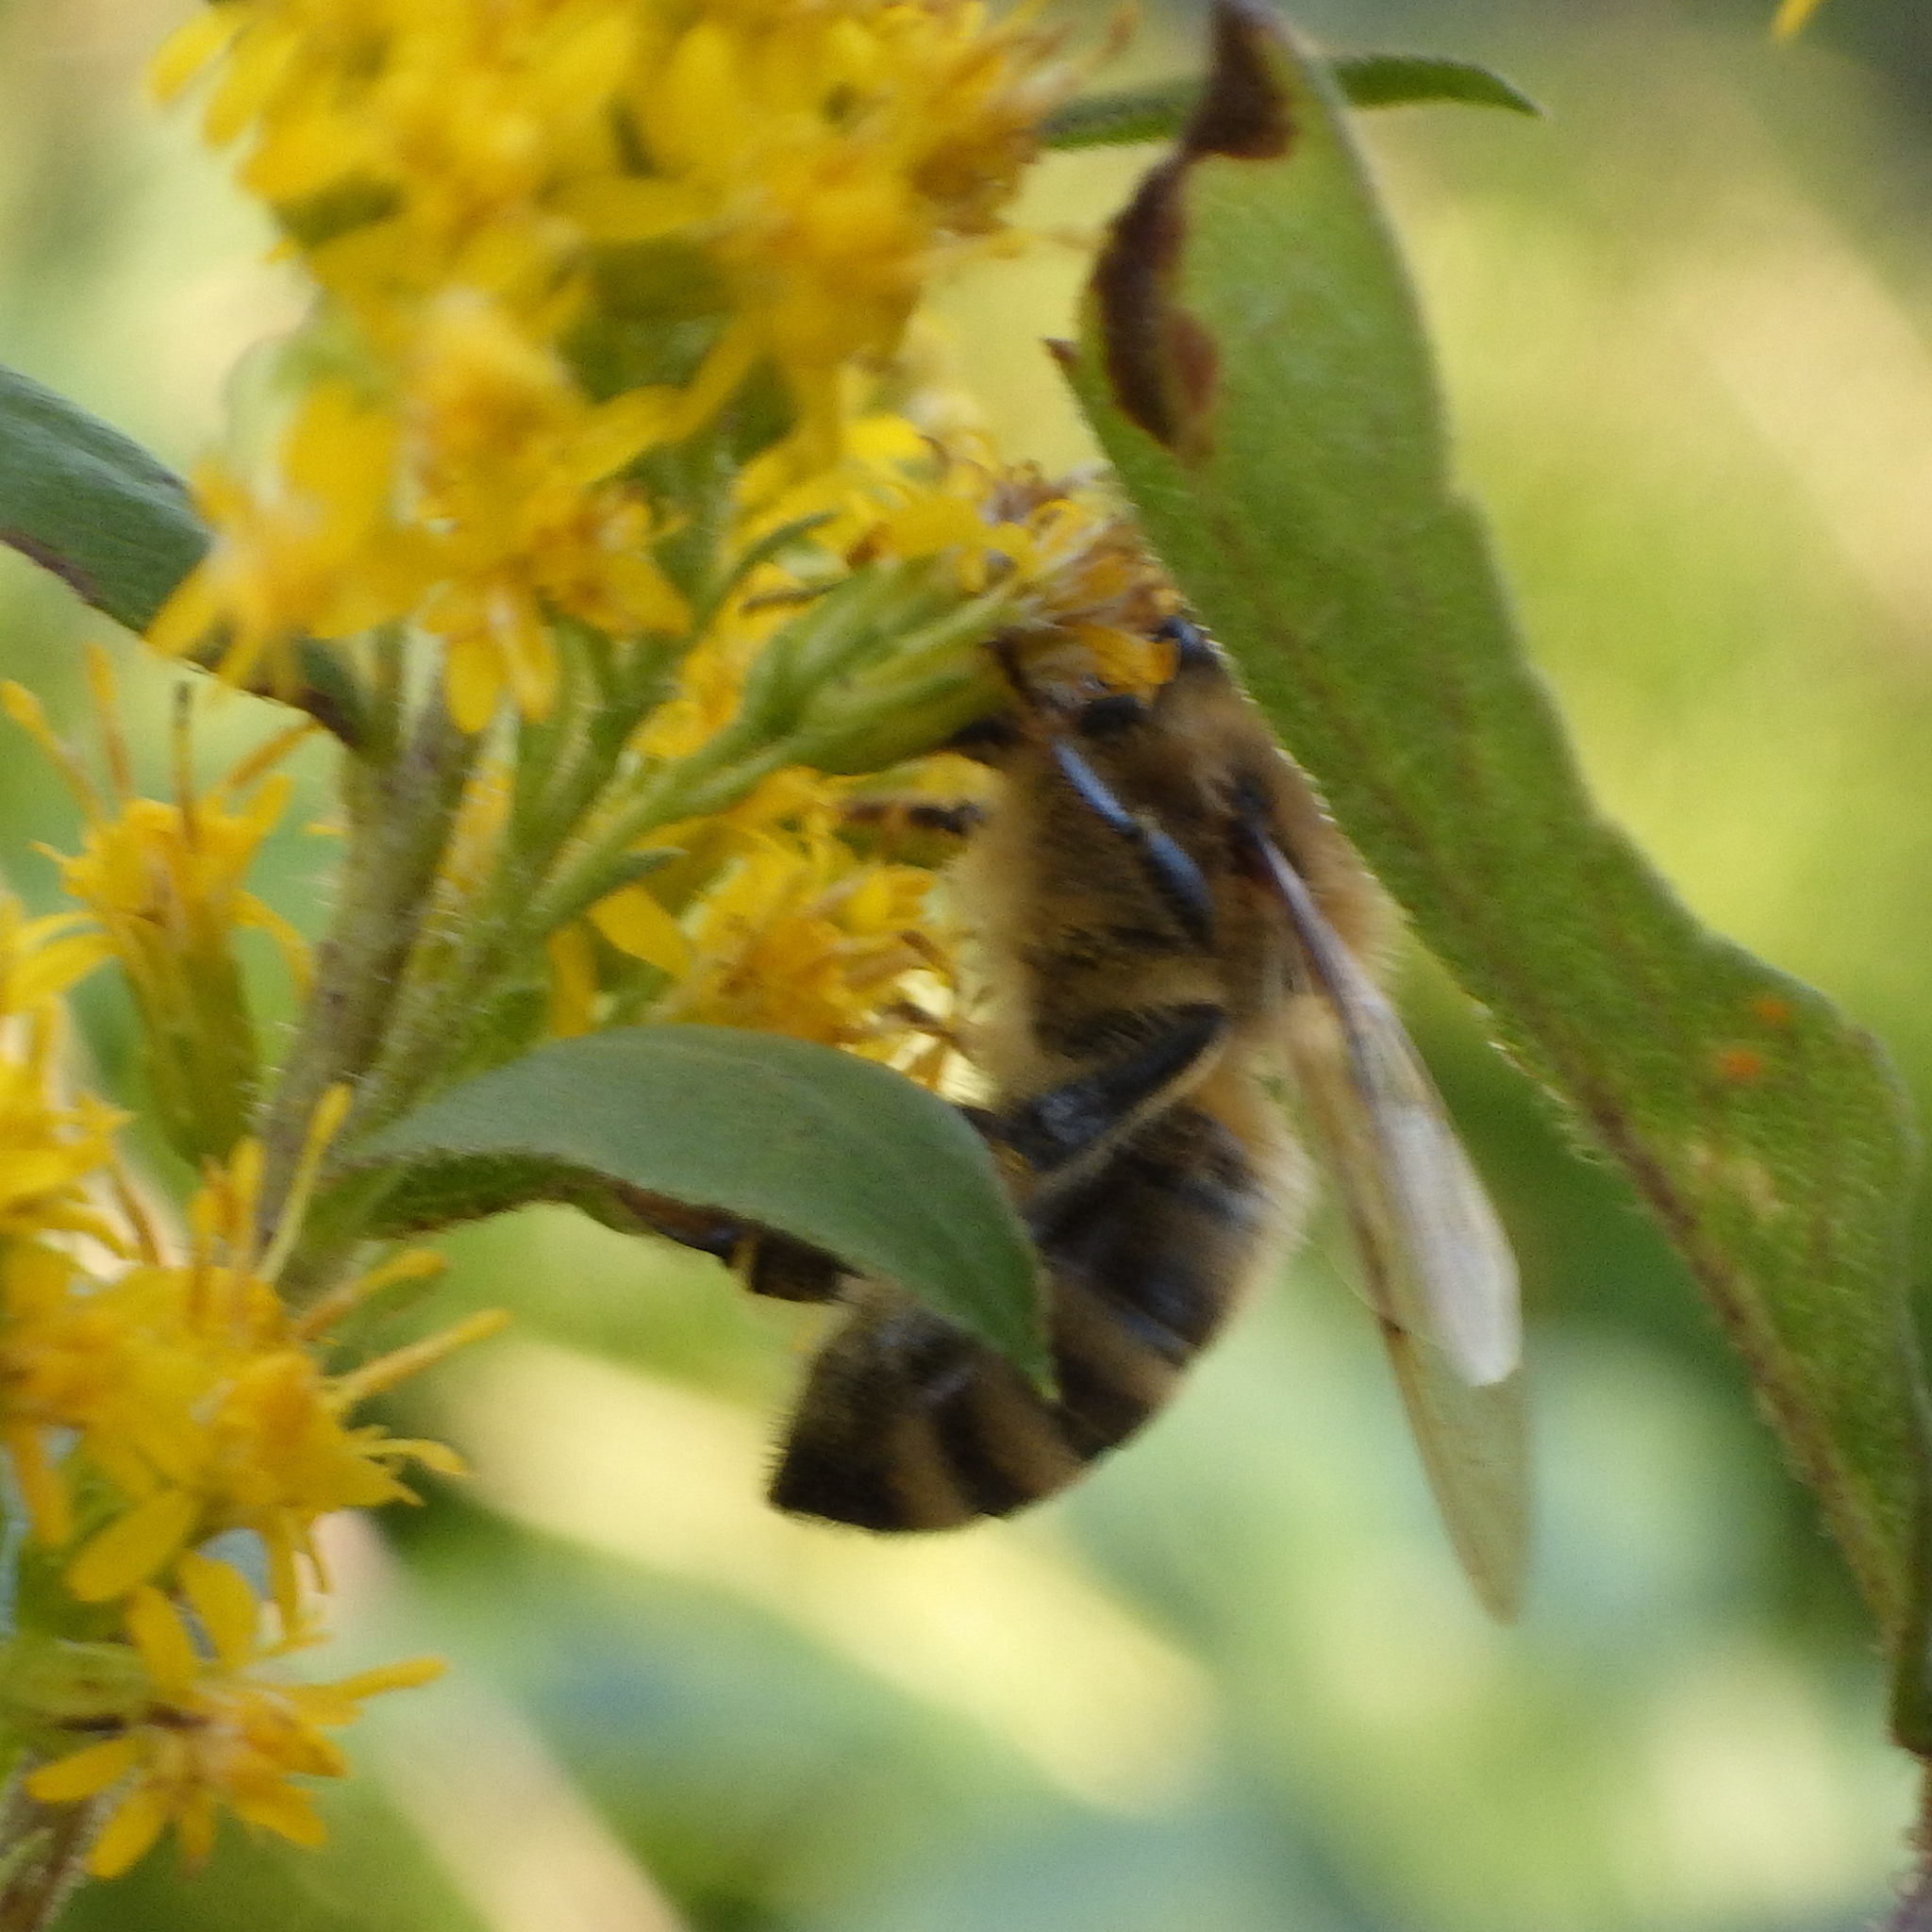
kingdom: Animalia
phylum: Arthropoda
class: Insecta
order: Hymenoptera
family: Apidae
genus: Apis
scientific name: Apis mellifera
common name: Honey bee
